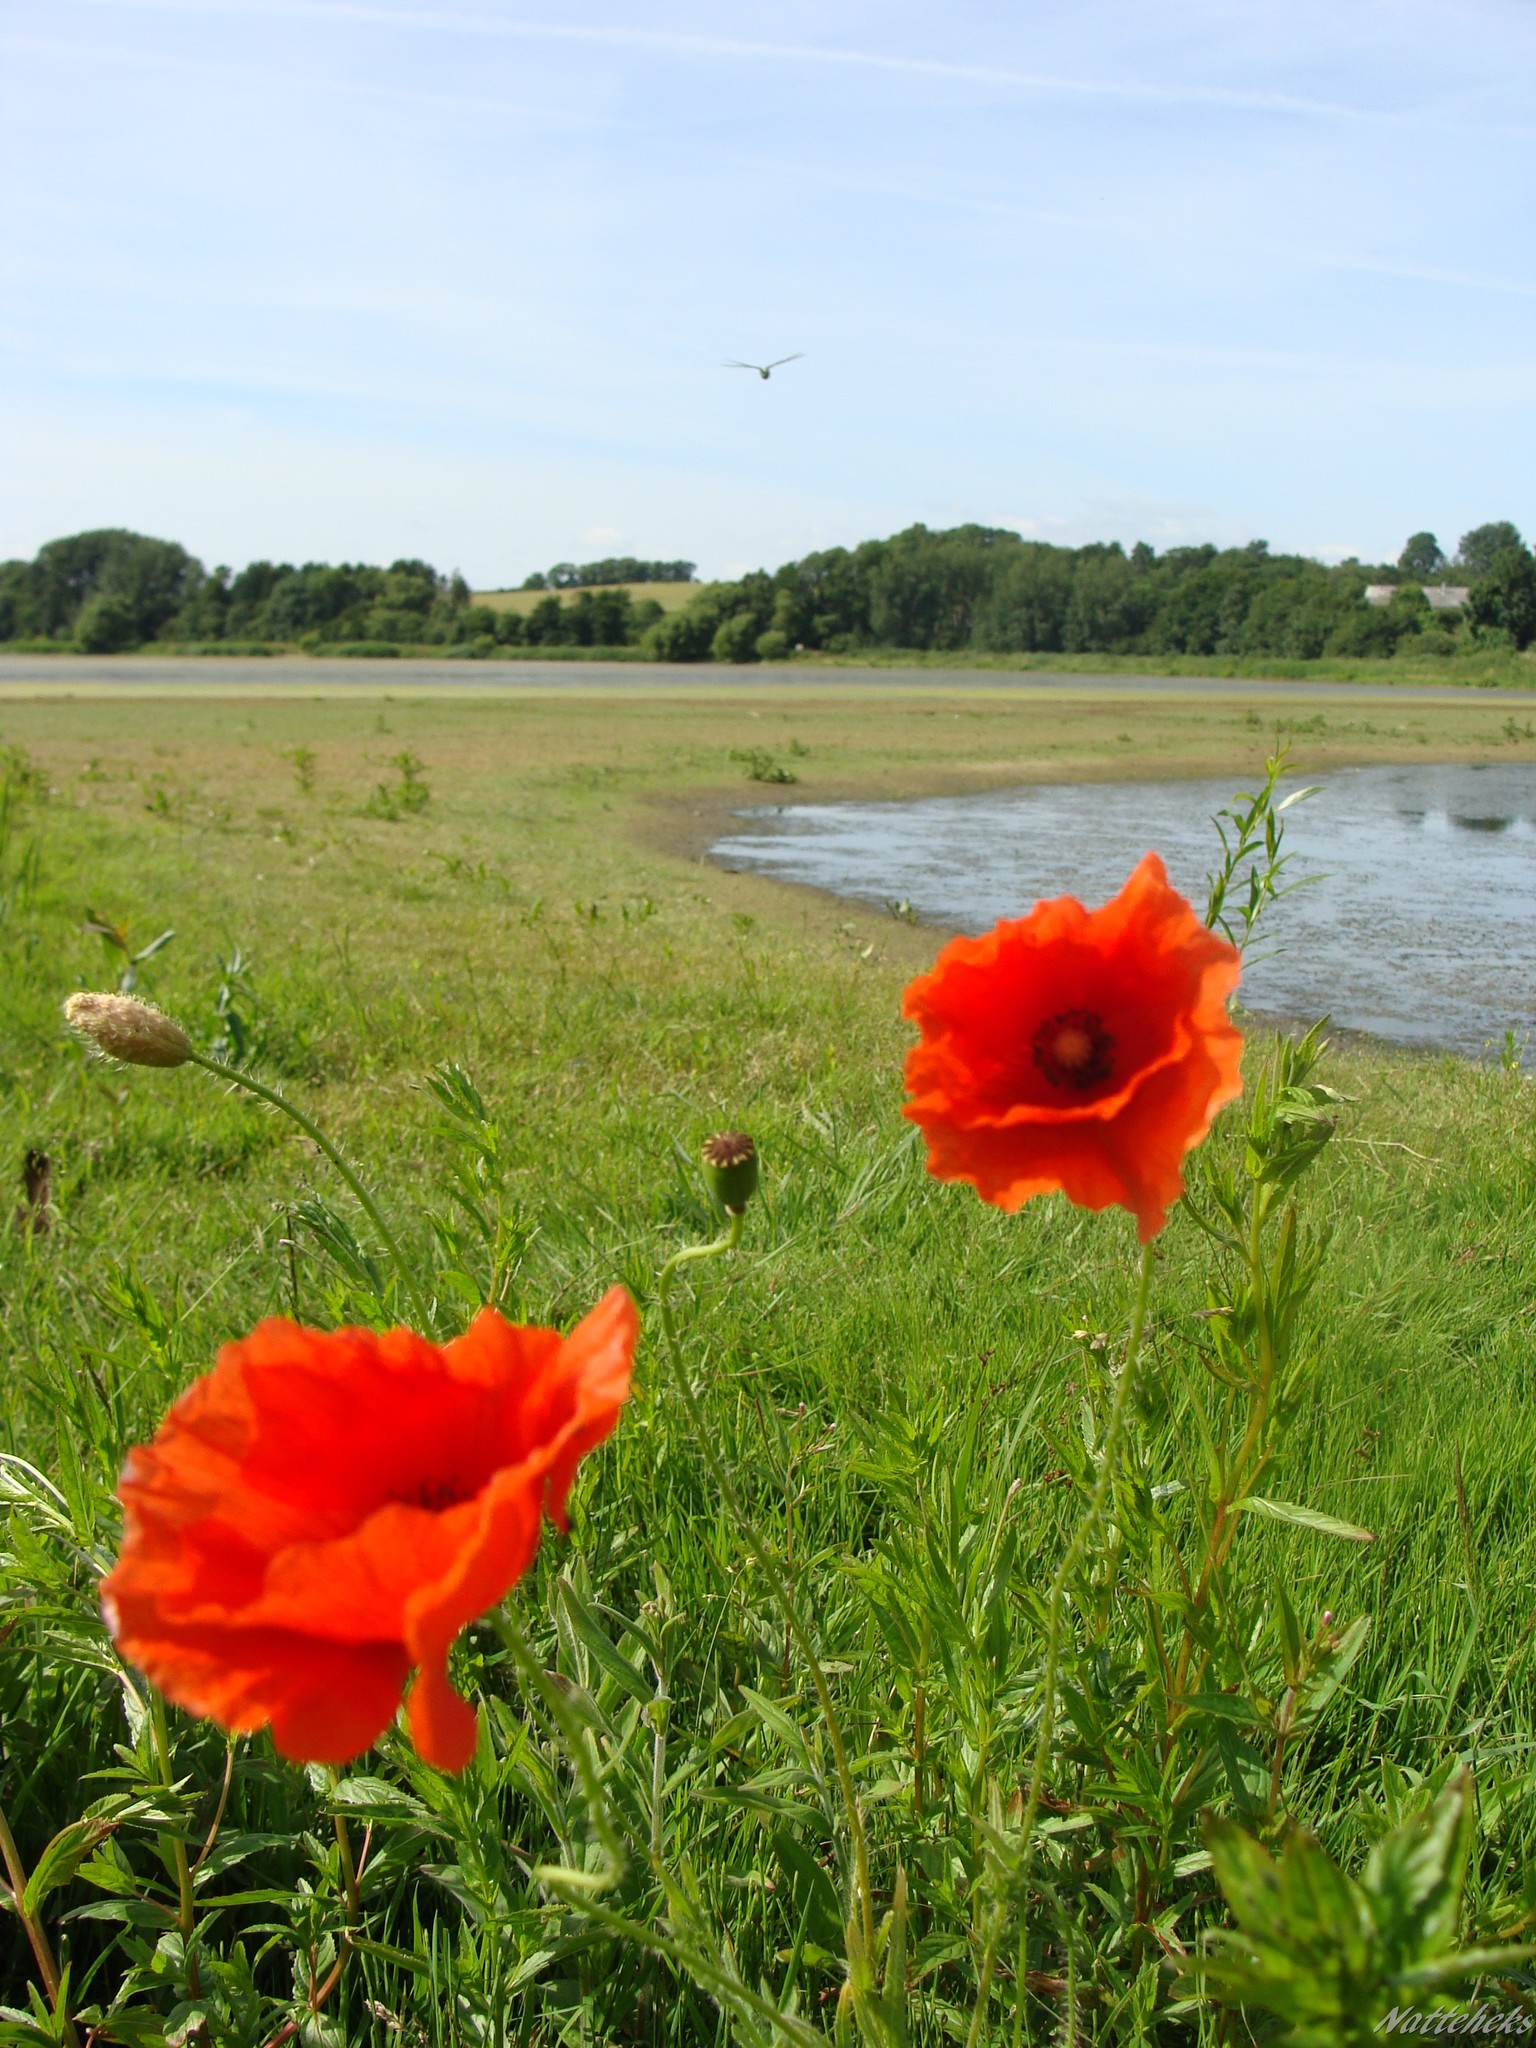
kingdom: Plantae
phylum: Tracheophyta
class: Magnoliopsida
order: Ranunculales
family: Papaveraceae
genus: Papaver
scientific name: Papaver rhoeas
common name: Corn poppy
